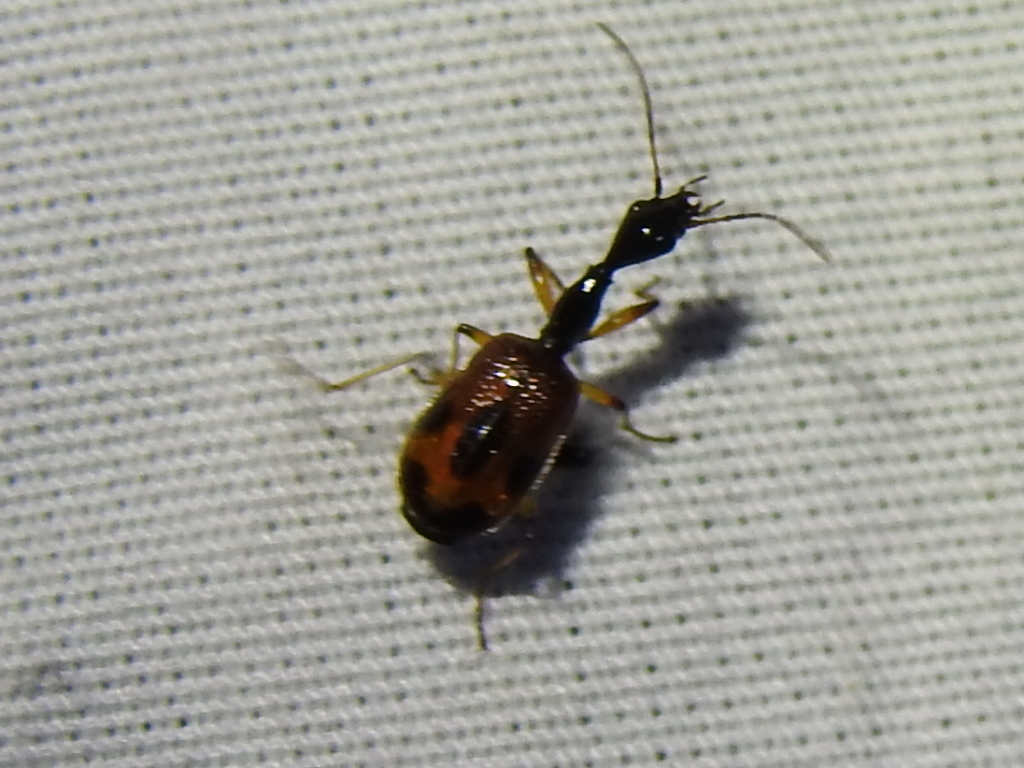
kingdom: Animalia
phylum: Arthropoda
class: Insecta
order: Coleoptera
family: Carabidae
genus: Colliuris
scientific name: Colliuris pensylvanica
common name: Long-necked ground beetle
